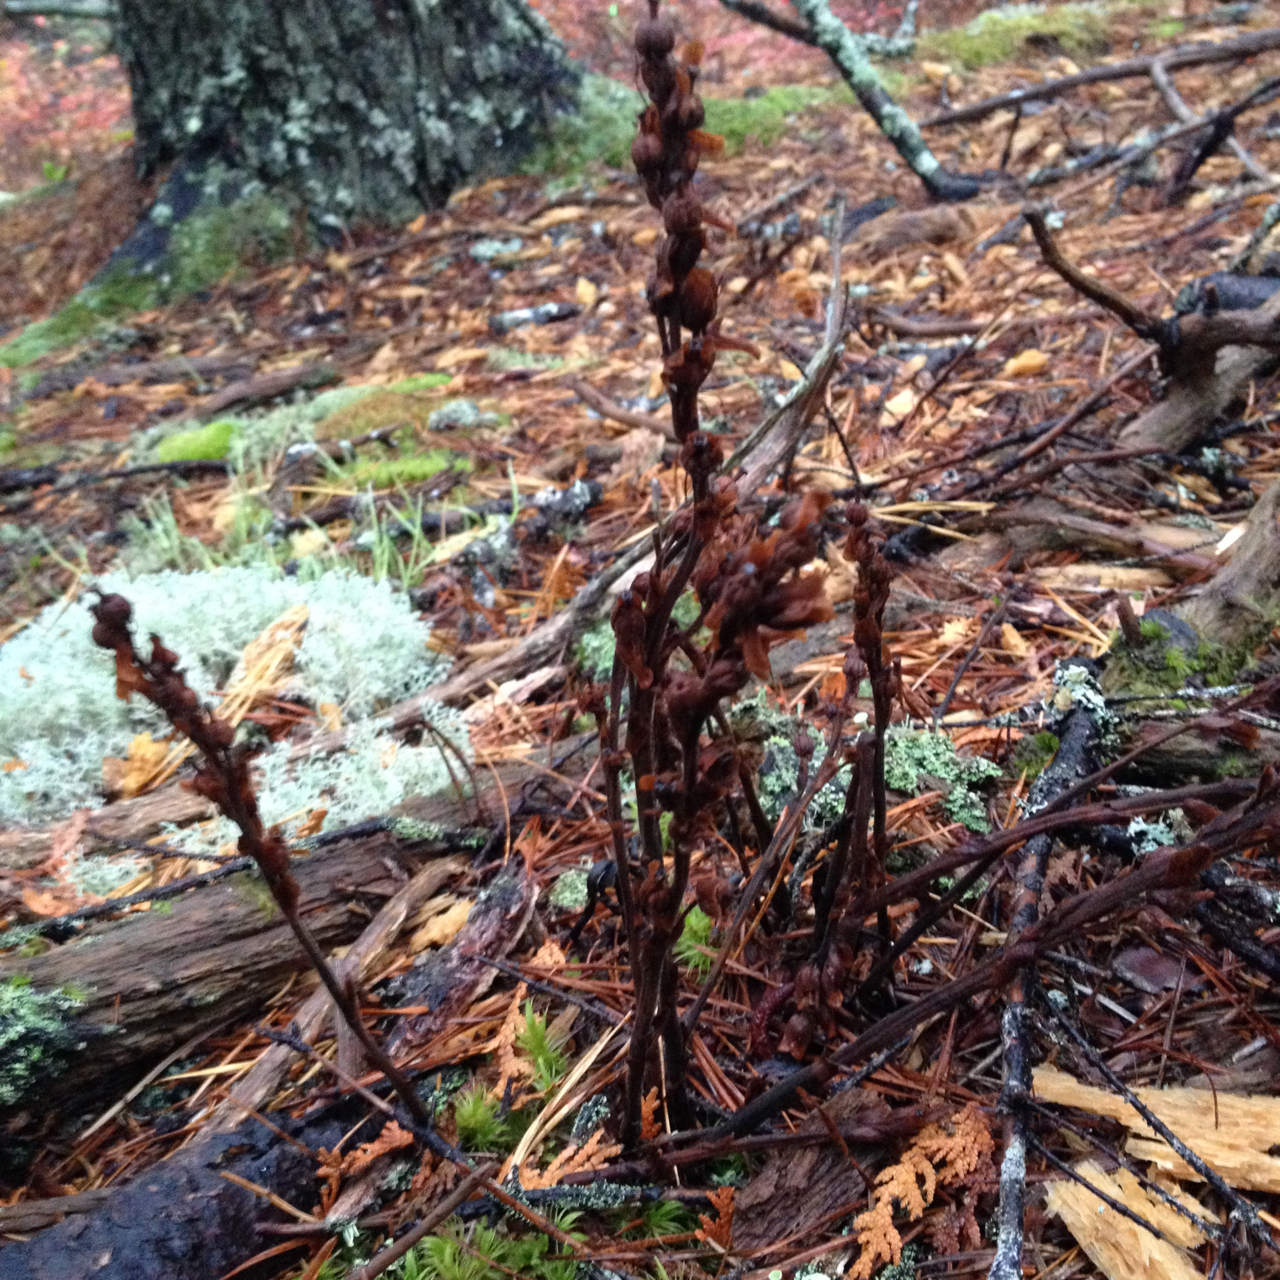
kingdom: Plantae
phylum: Tracheophyta
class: Magnoliopsida
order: Ericales
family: Ericaceae
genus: Hypopitys
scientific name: Hypopitys monotropa
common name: Yellow bird's-nest
